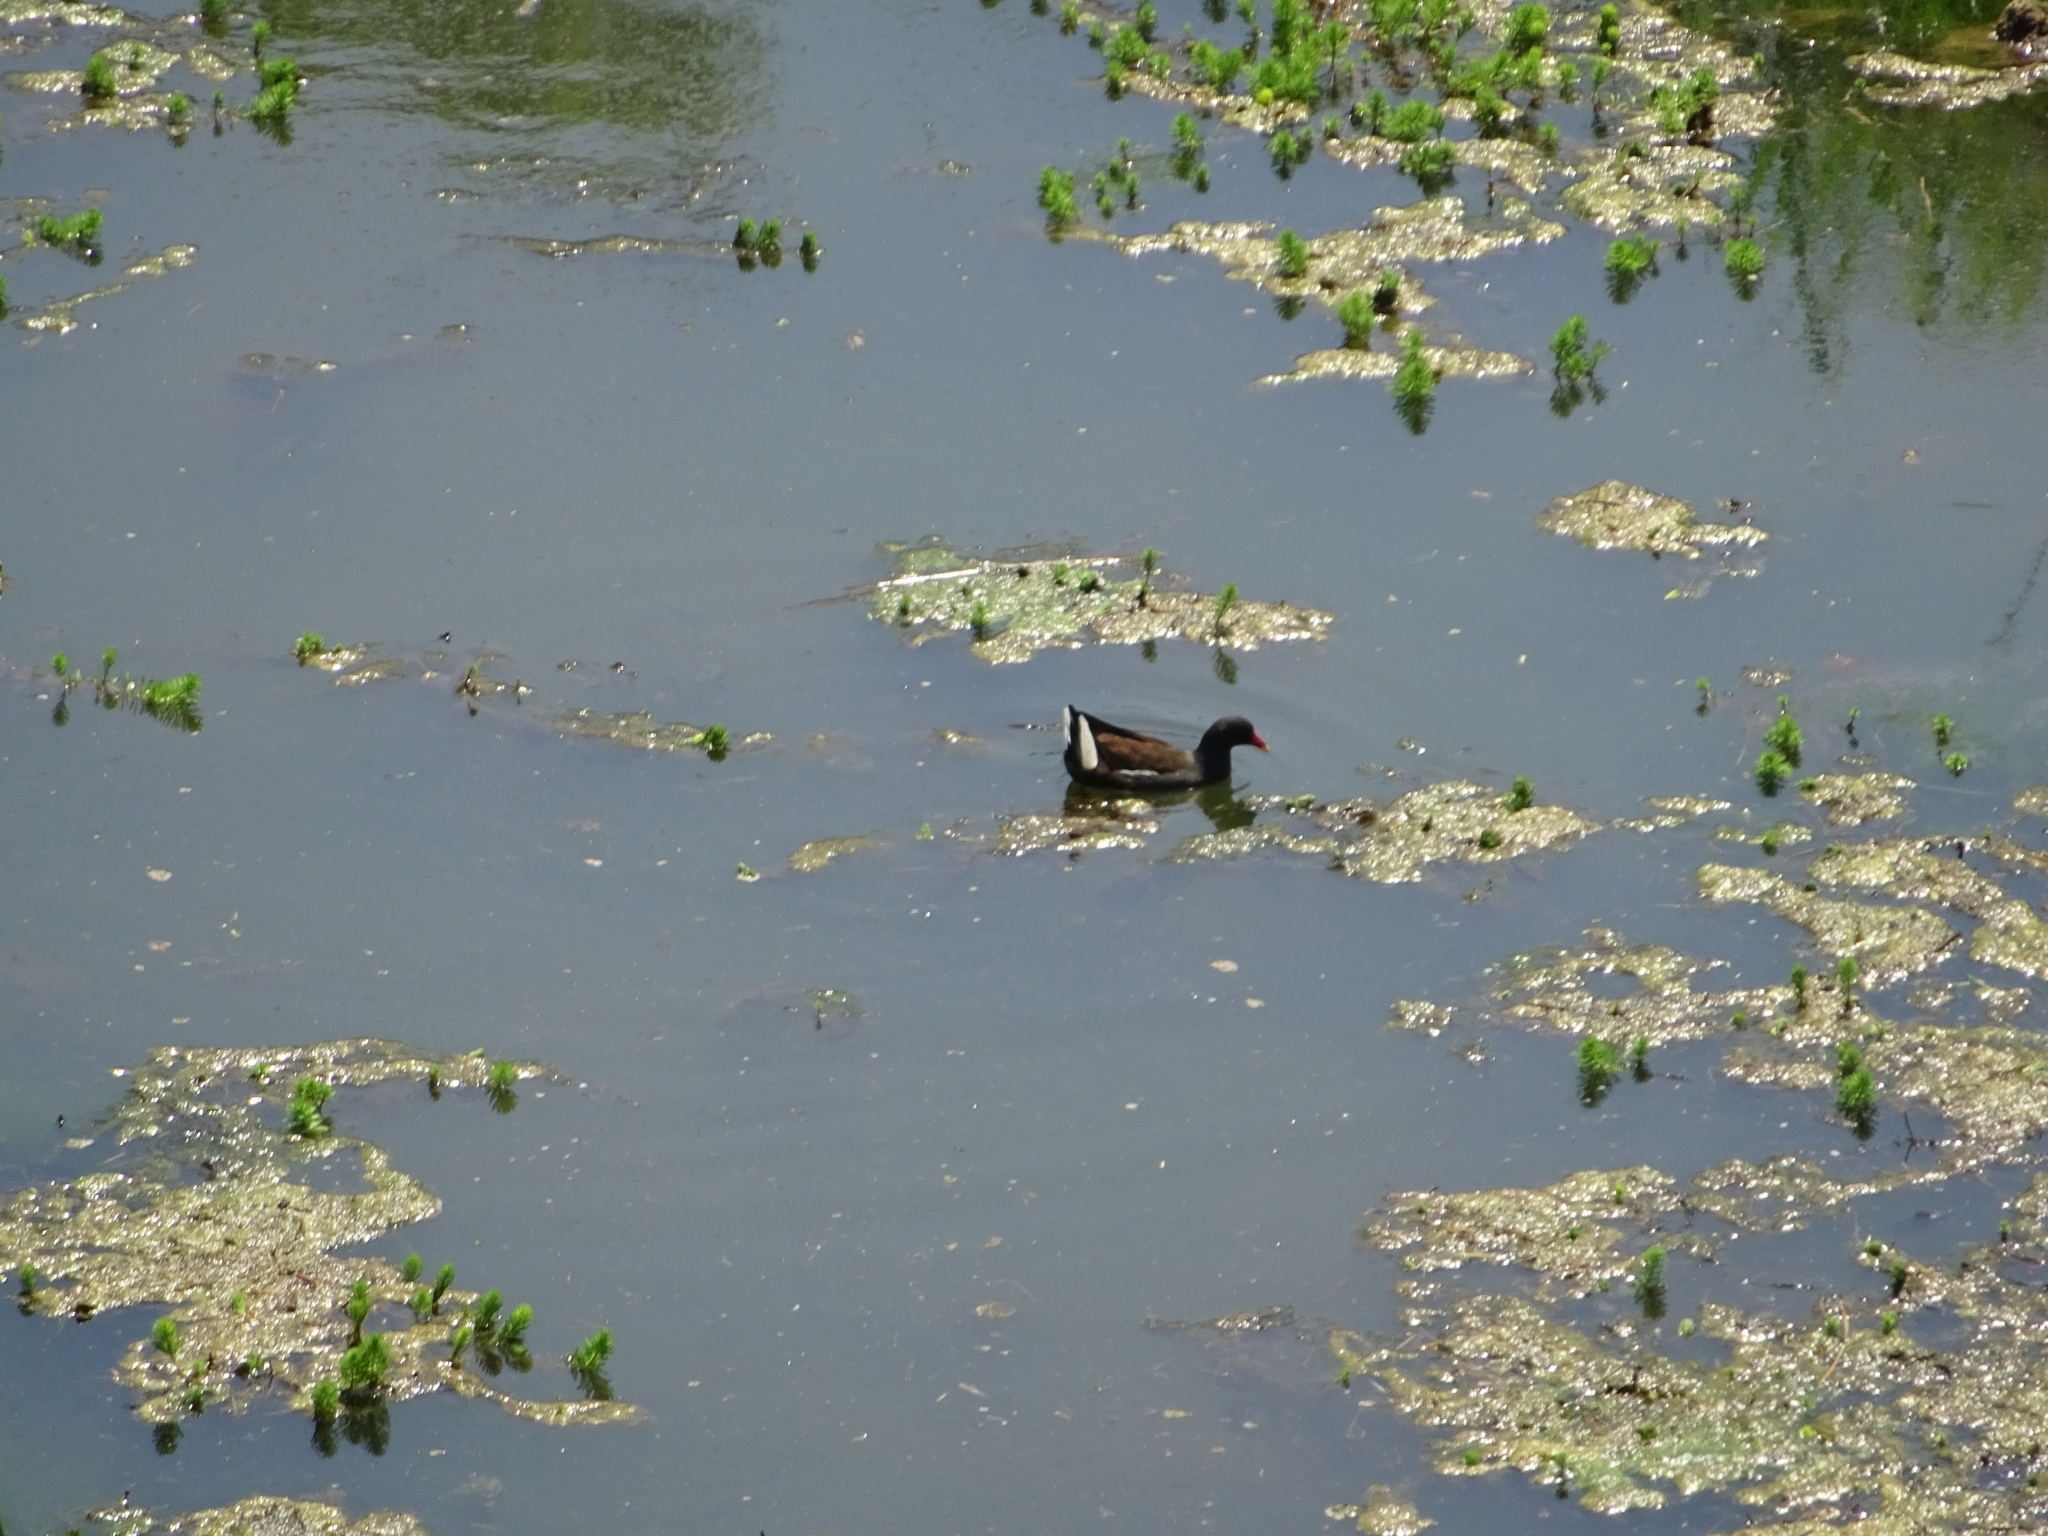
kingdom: Animalia
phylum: Chordata
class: Aves
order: Gruiformes
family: Rallidae
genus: Gallinula
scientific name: Gallinula chloropus
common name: Common moorhen
